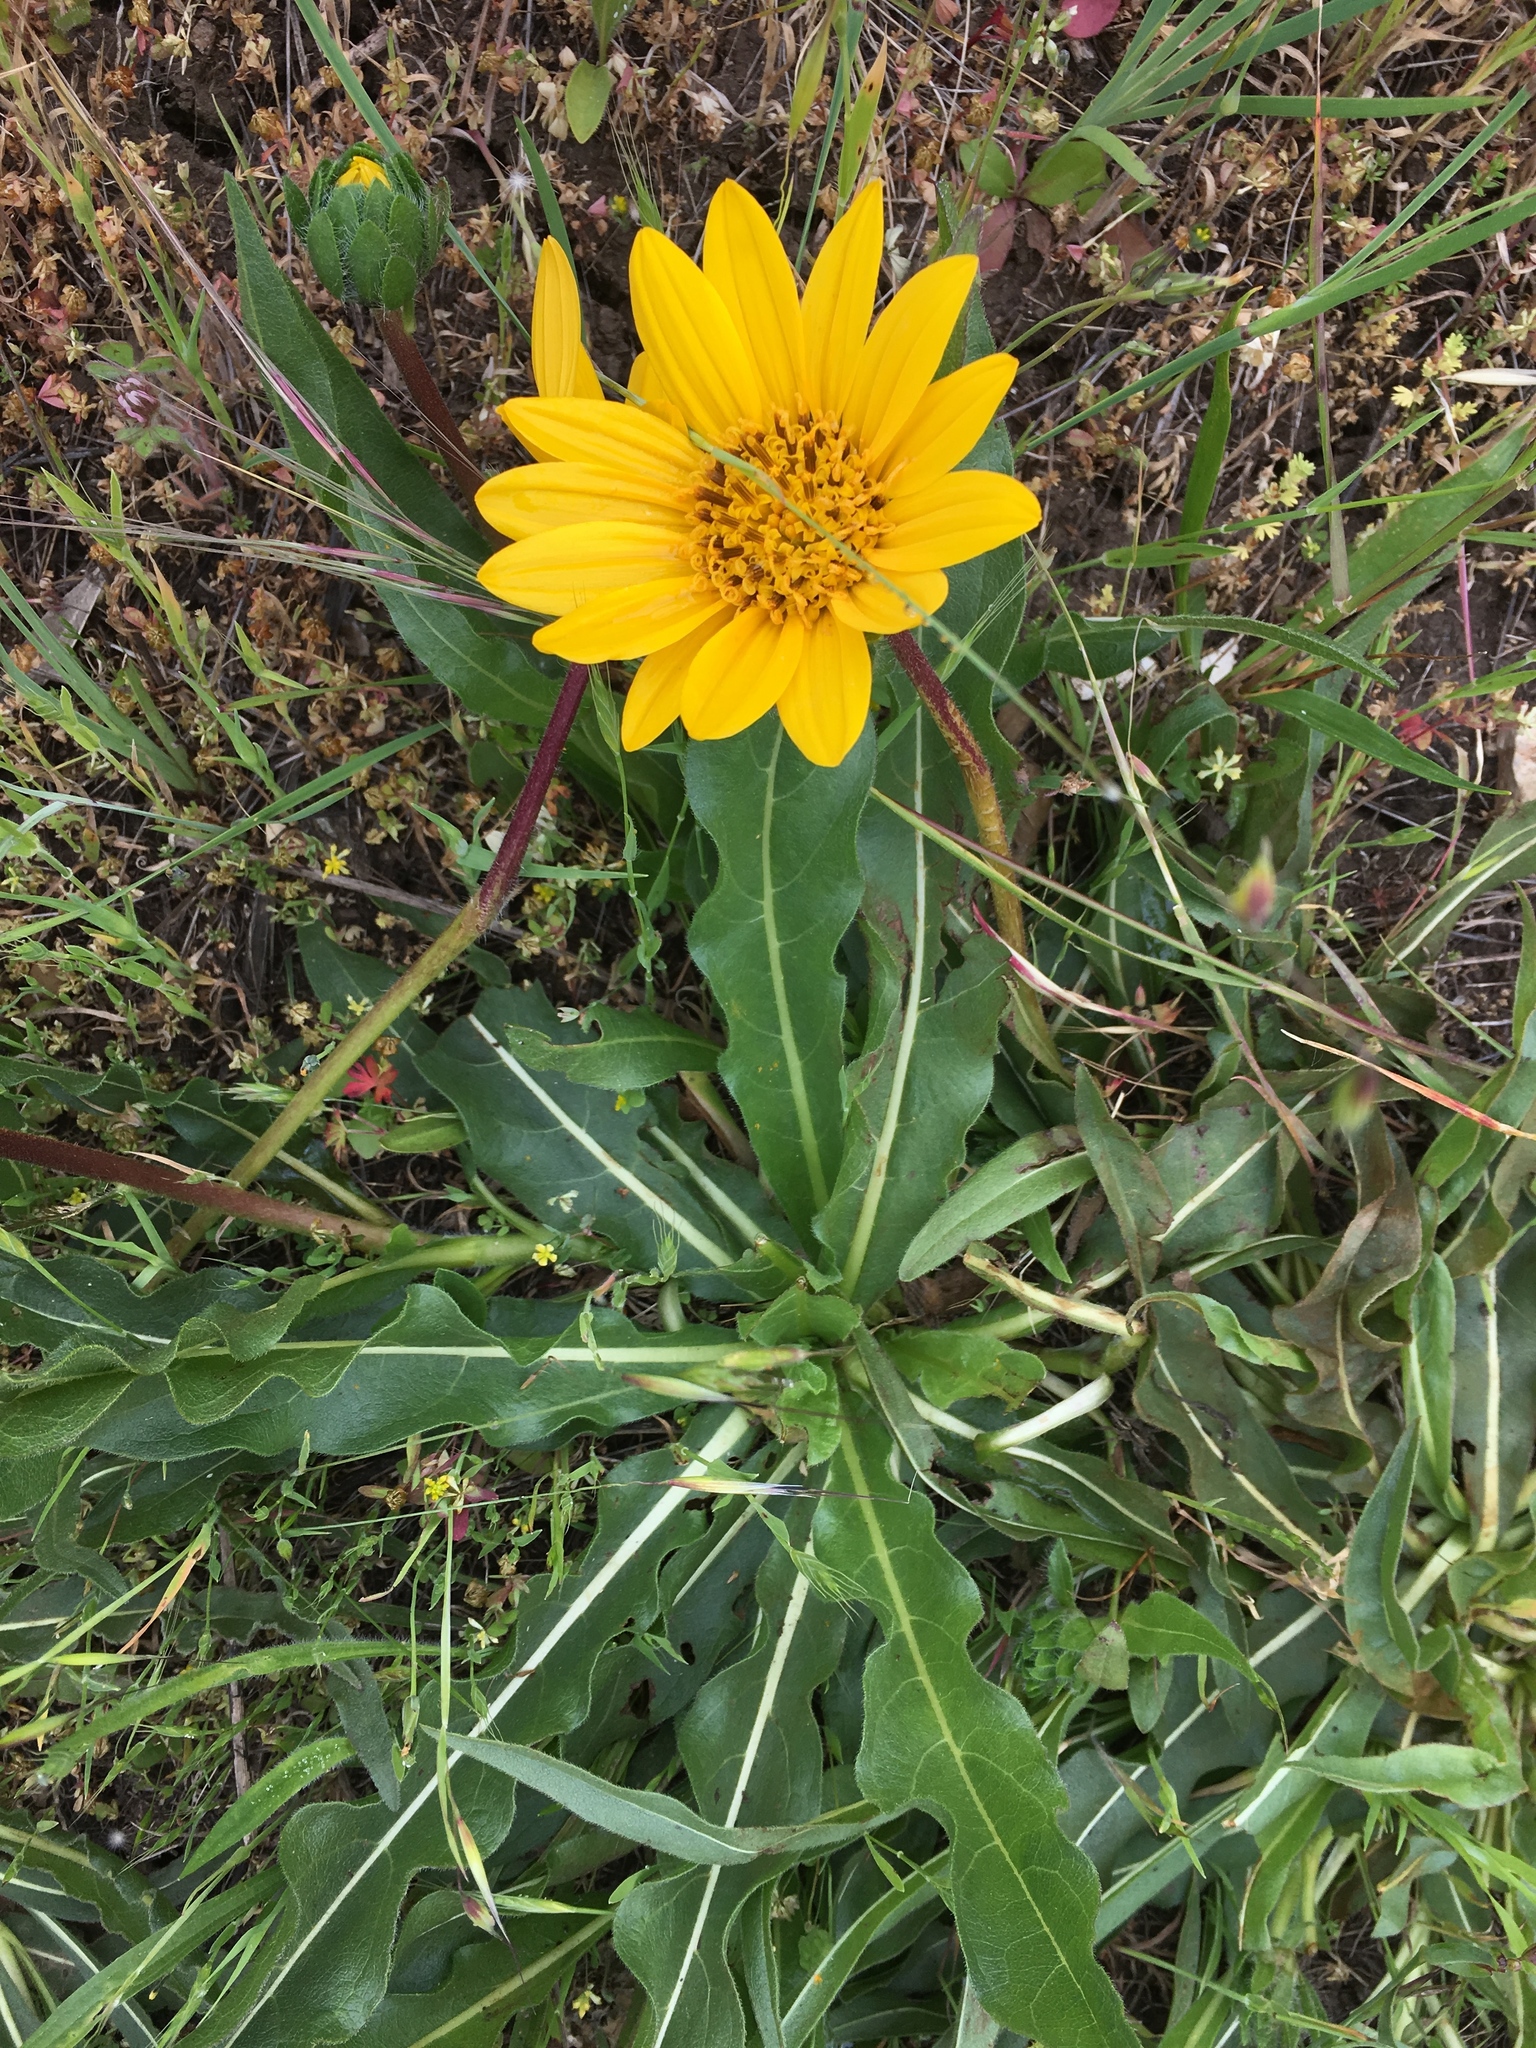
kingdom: Plantae
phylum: Tracheophyta
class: Magnoliopsida
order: Asterales
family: Asteraceae
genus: Wyethia
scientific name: Wyethia angustifolia
